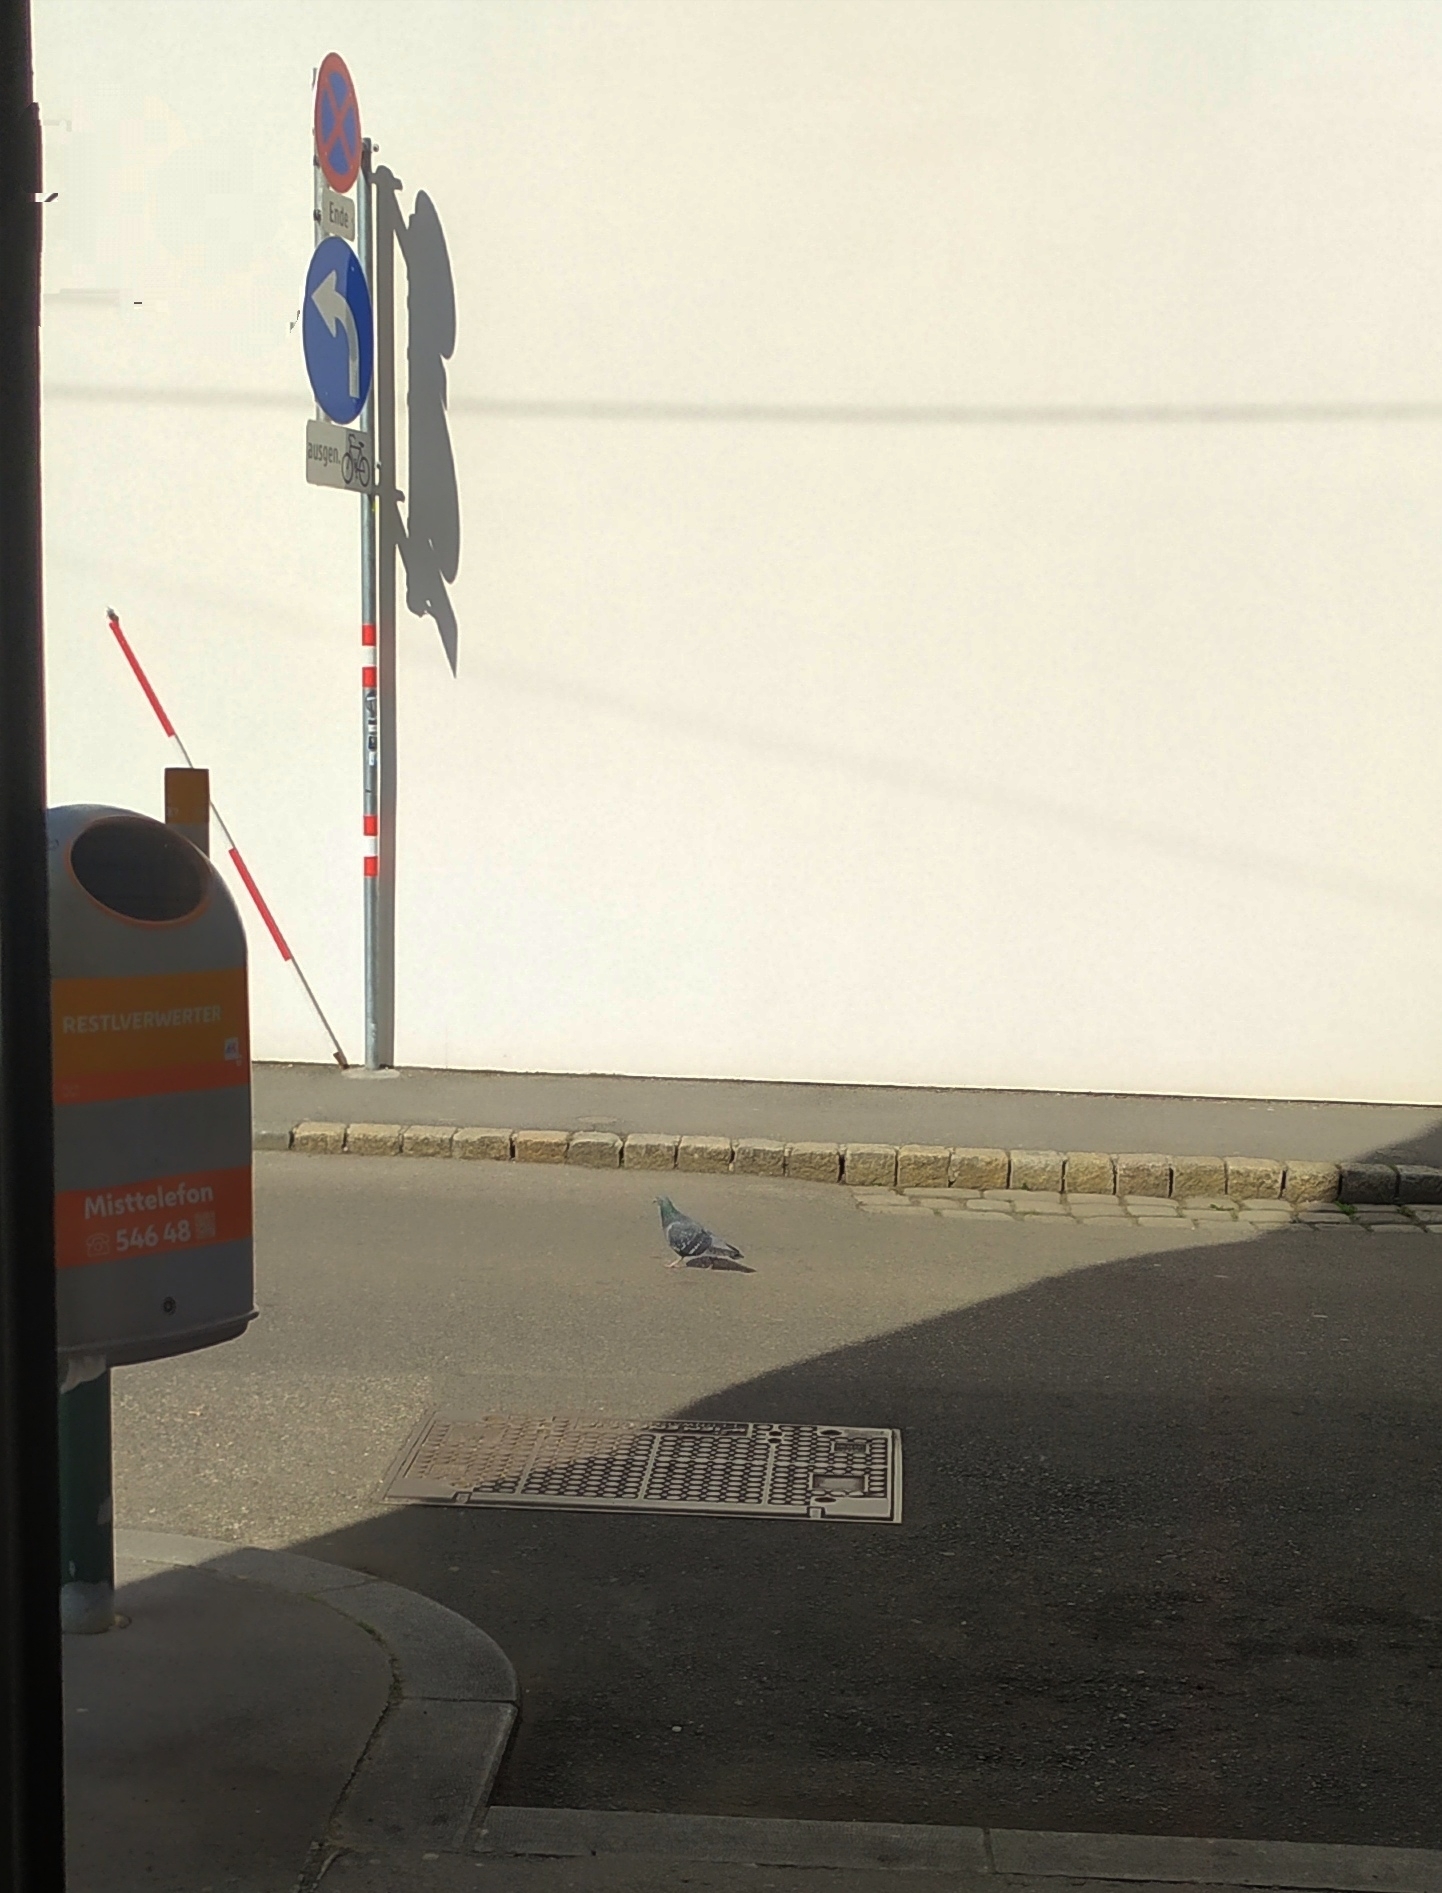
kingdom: Animalia
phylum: Chordata
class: Aves
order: Columbiformes
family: Columbidae
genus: Columba
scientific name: Columba livia
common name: Rock pigeon
